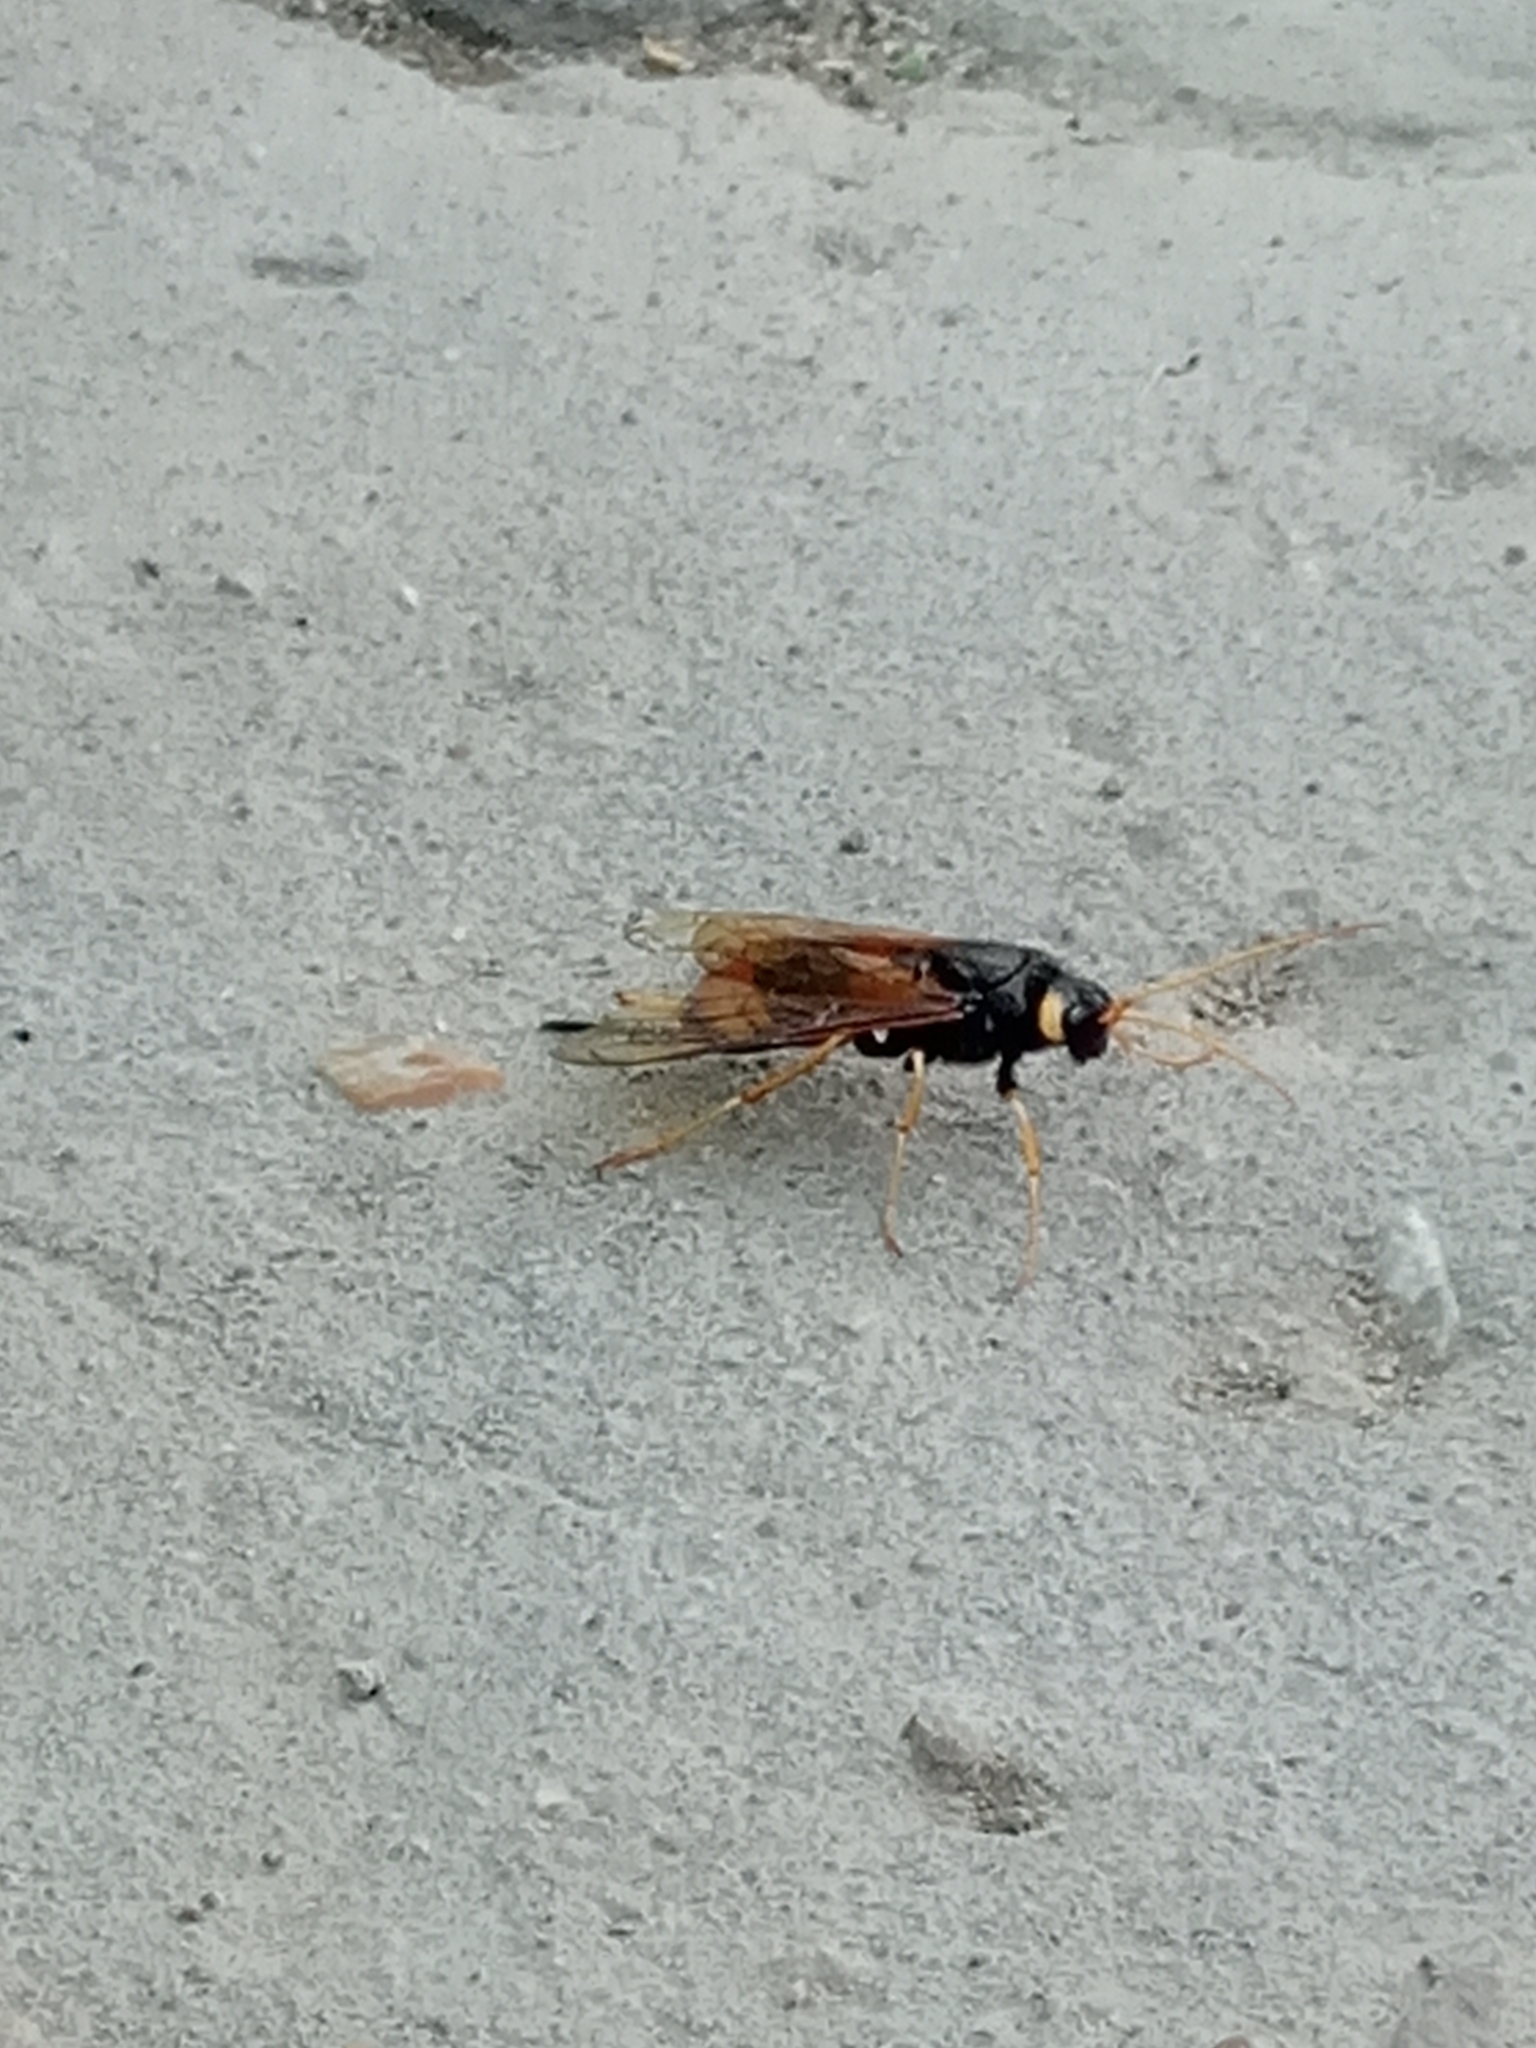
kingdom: Animalia
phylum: Arthropoda
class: Insecta
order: Hymenoptera
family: Siricidae
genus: Urocerus
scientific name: Urocerus gigas
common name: Giant woodwasp
